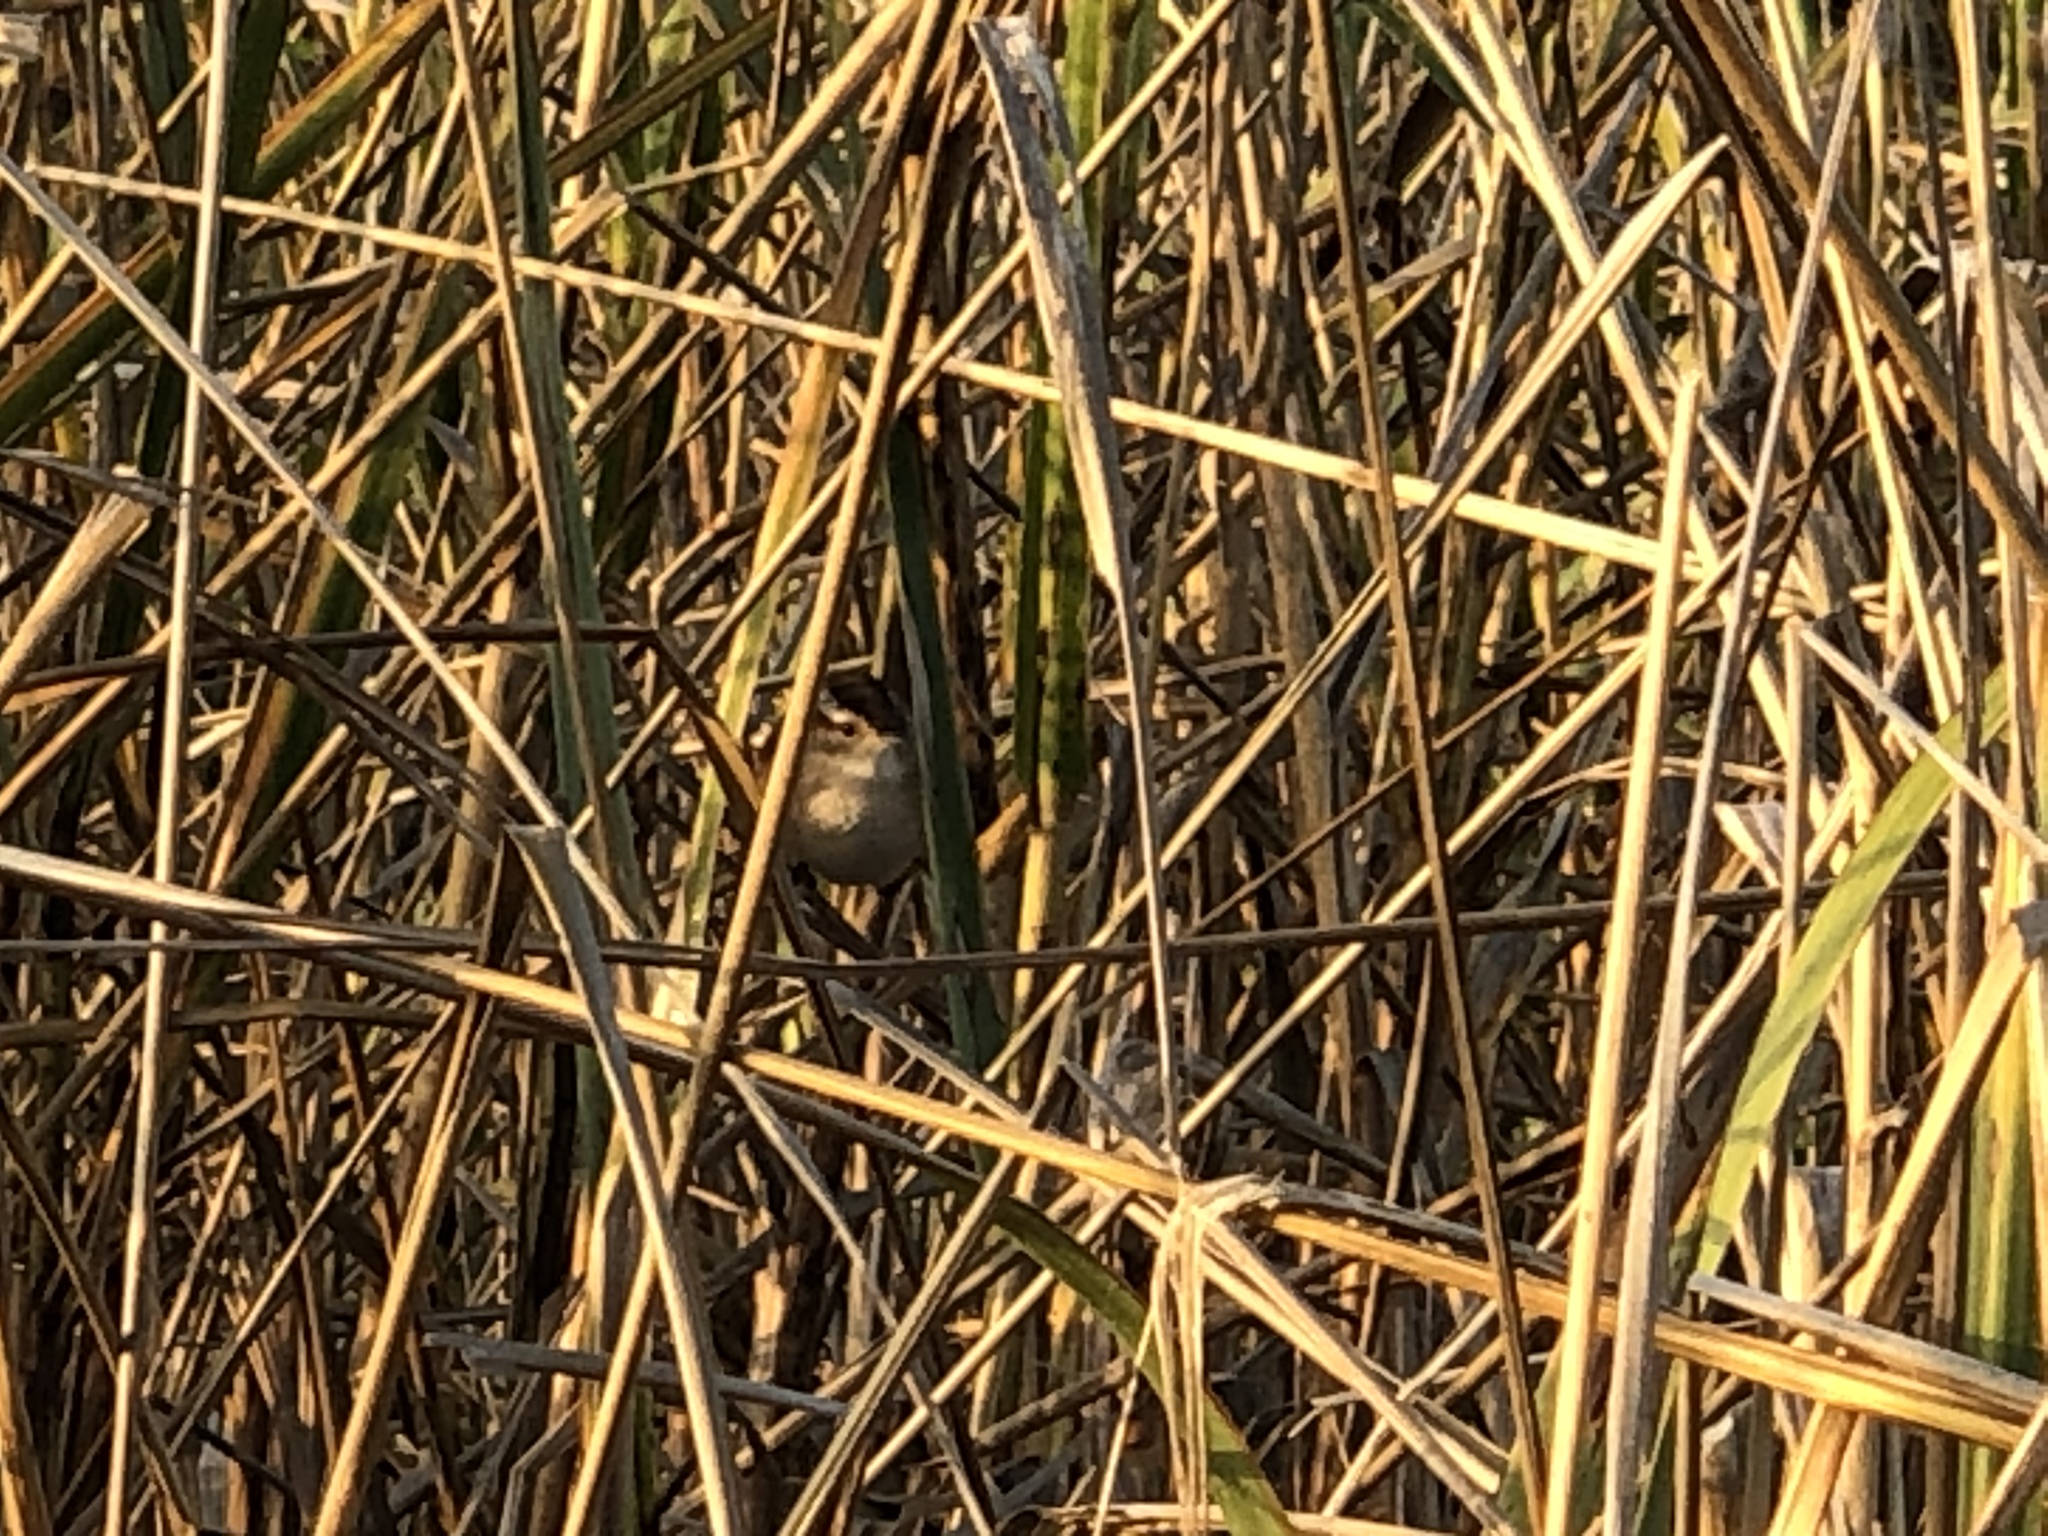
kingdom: Animalia
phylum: Chordata
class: Aves
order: Passeriformes
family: Troglodytidae
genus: Cistothorus
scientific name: Cistothorus palustris
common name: Marsh wren
